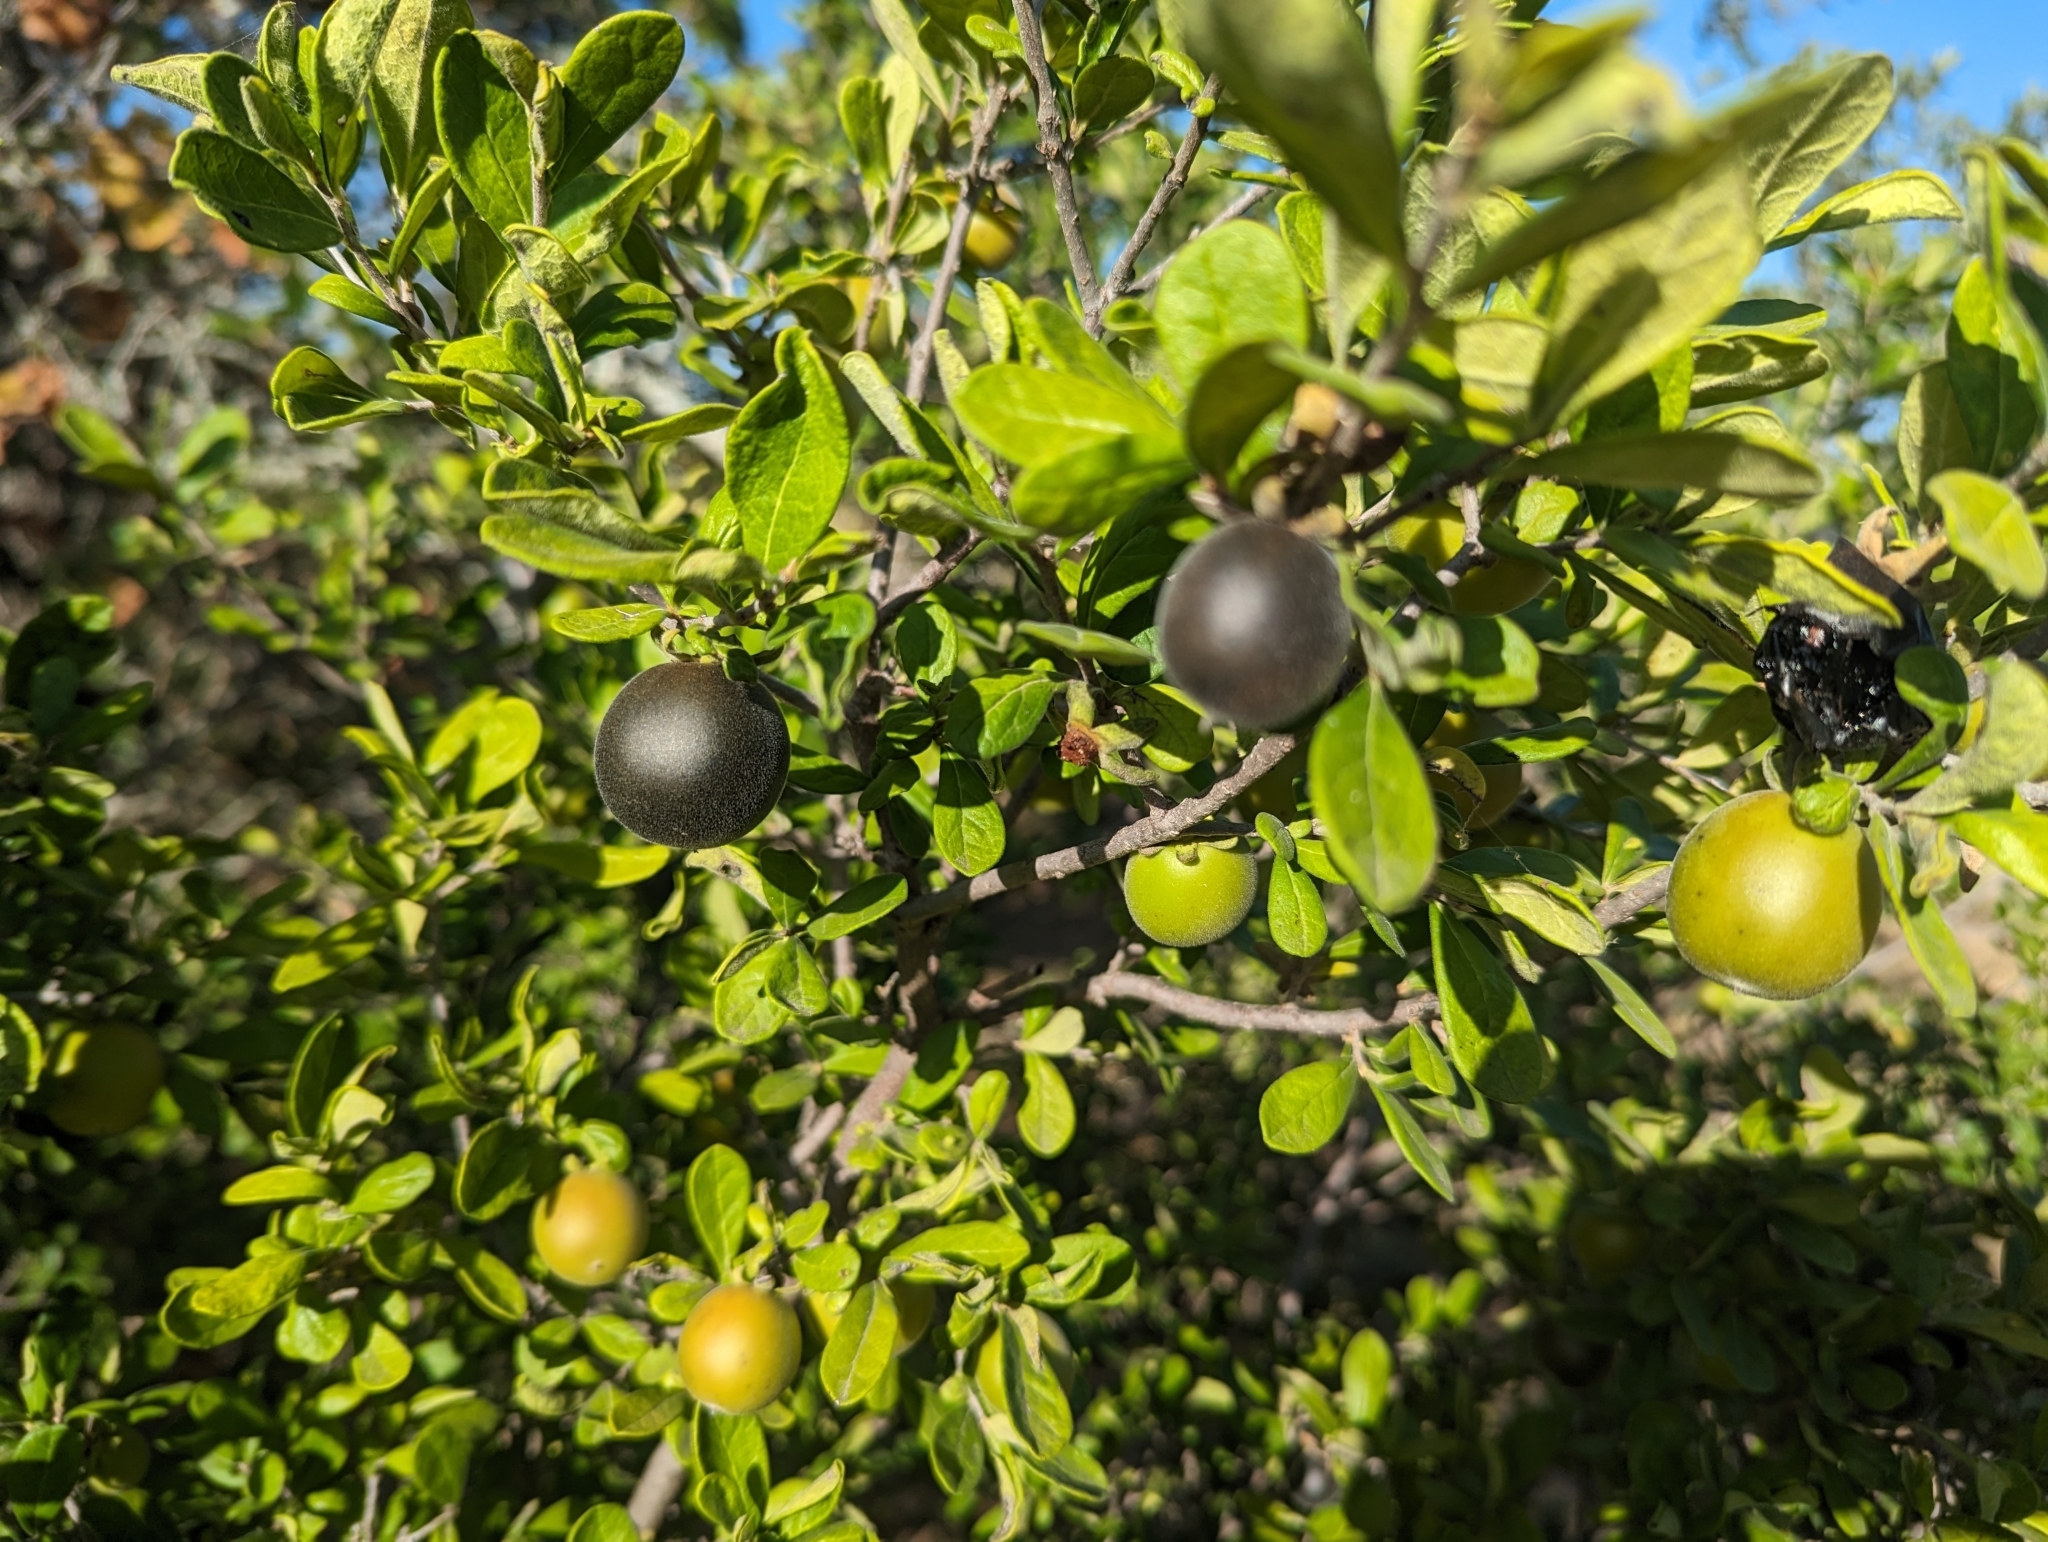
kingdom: Plantae
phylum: Tracheophyta
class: Magnoliopsida
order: Ericales
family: Ebenaceae
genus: Diospyros
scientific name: Diospyros texana
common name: Texas persimmon
